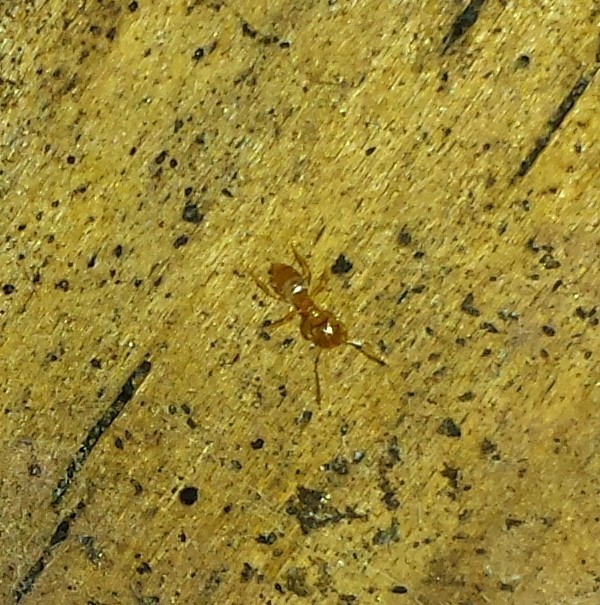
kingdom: Animalia
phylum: Arthropoda
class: Insecta
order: Hymenoptera
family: Formicidae
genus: Brachymyrmex
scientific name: Brachymyrmex depilis
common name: Hairless rover ant
